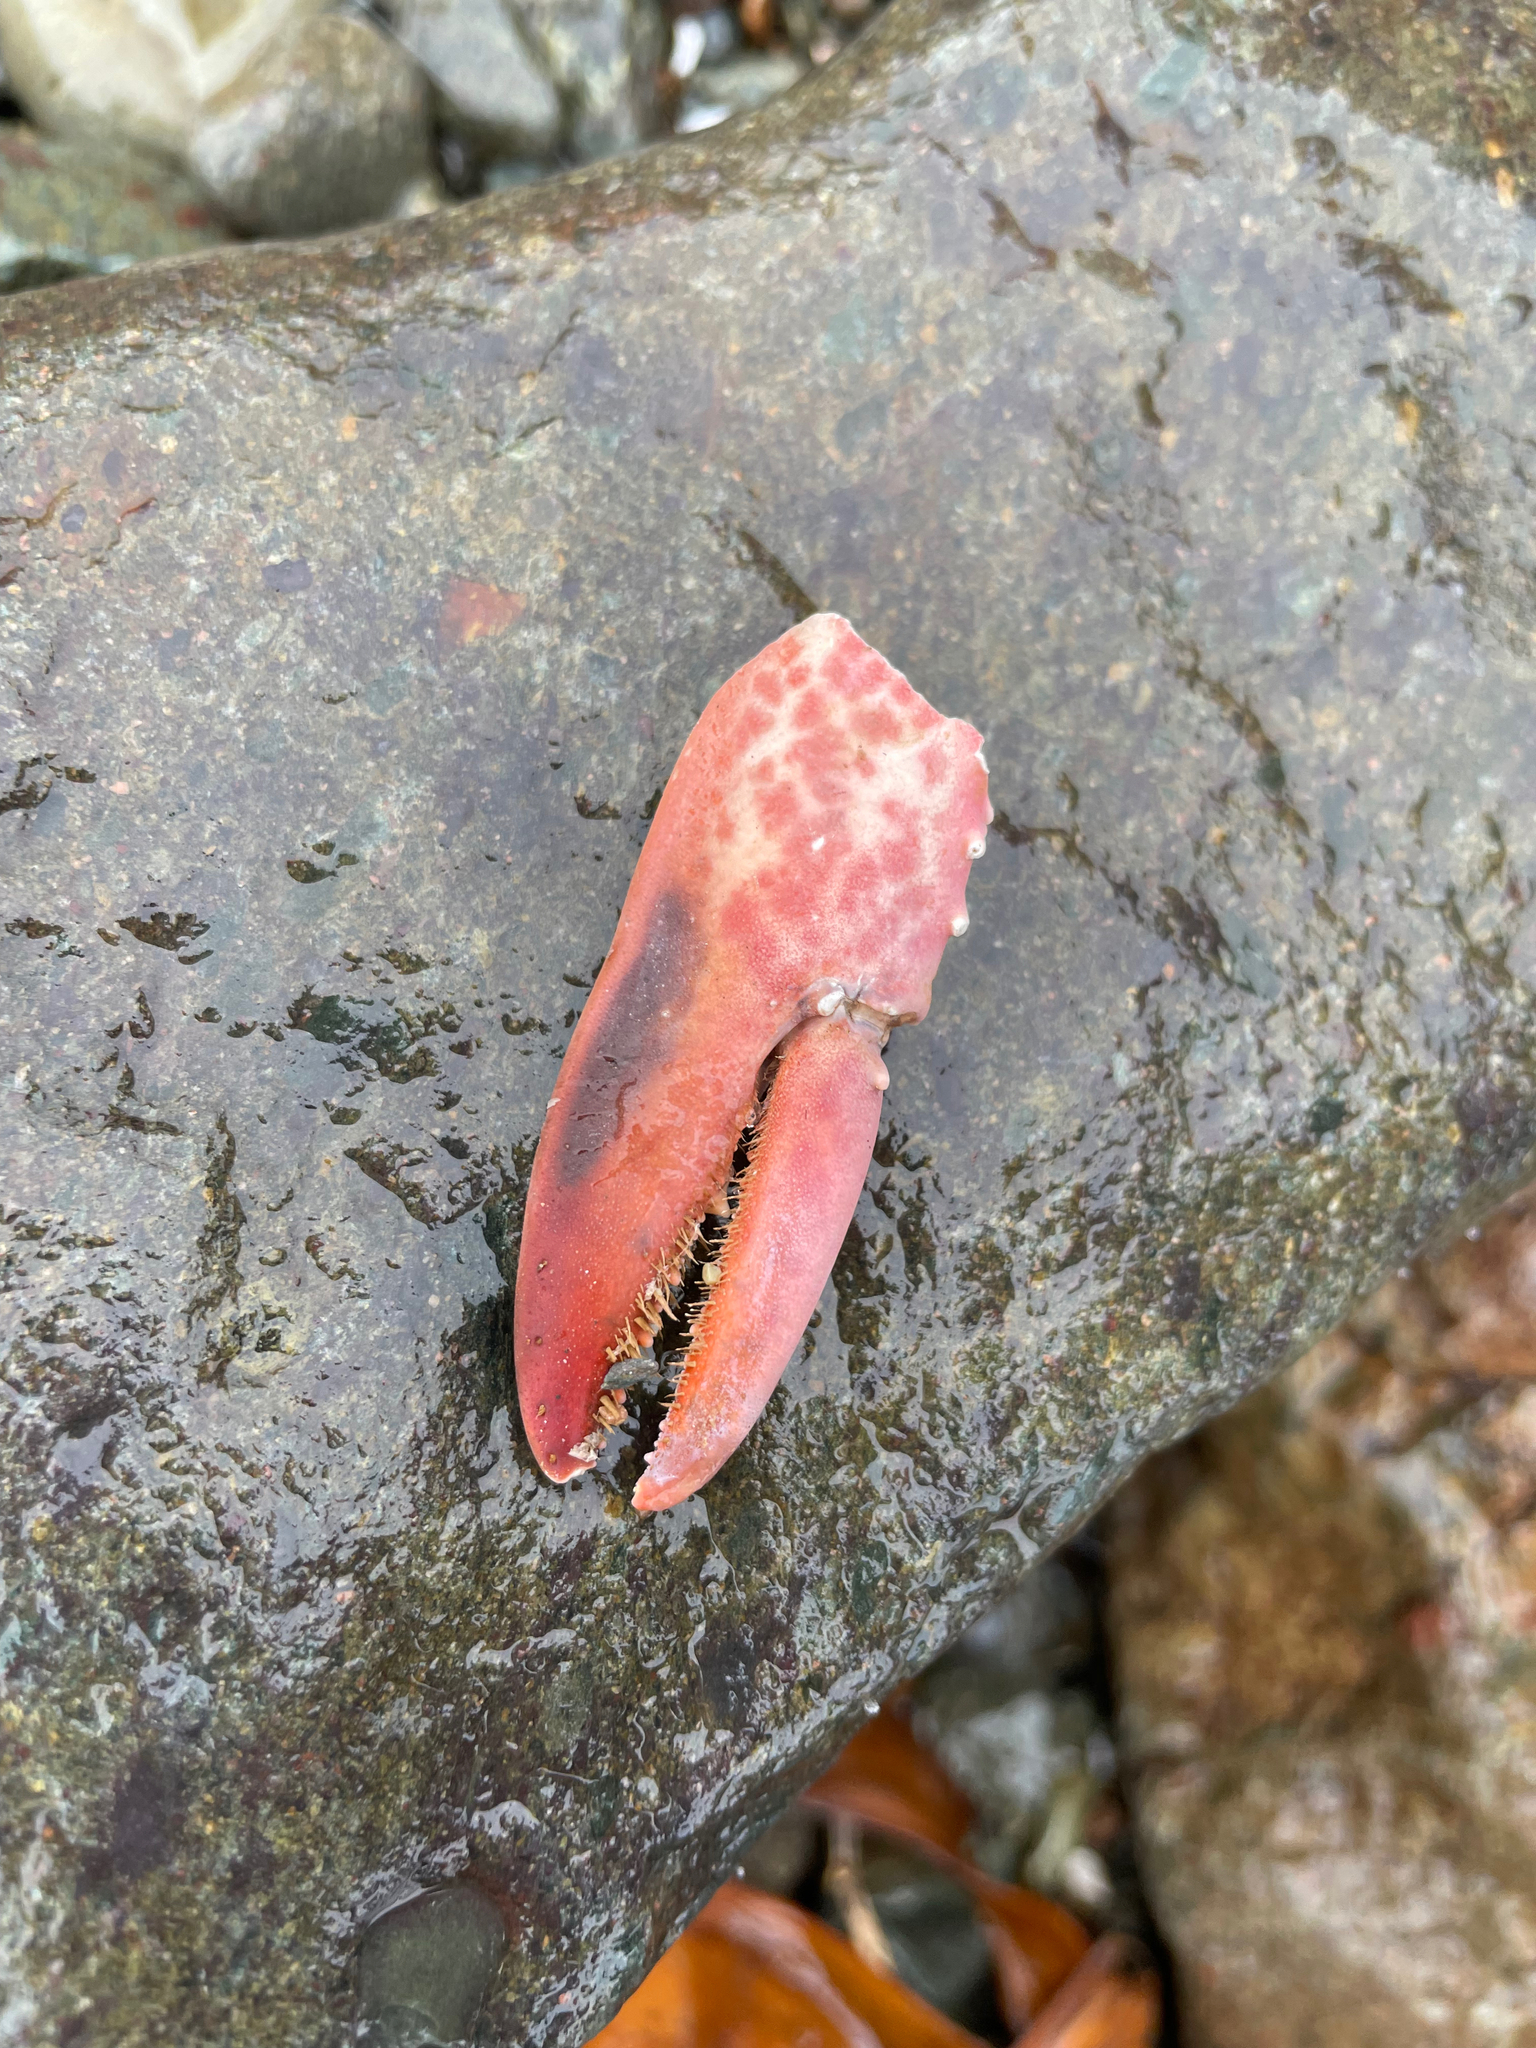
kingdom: Animalia
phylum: Arthropoda
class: Malacostraca
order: Decapoda
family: Nephropidae
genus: Homarus
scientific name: Homarus americanus
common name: American lobster
